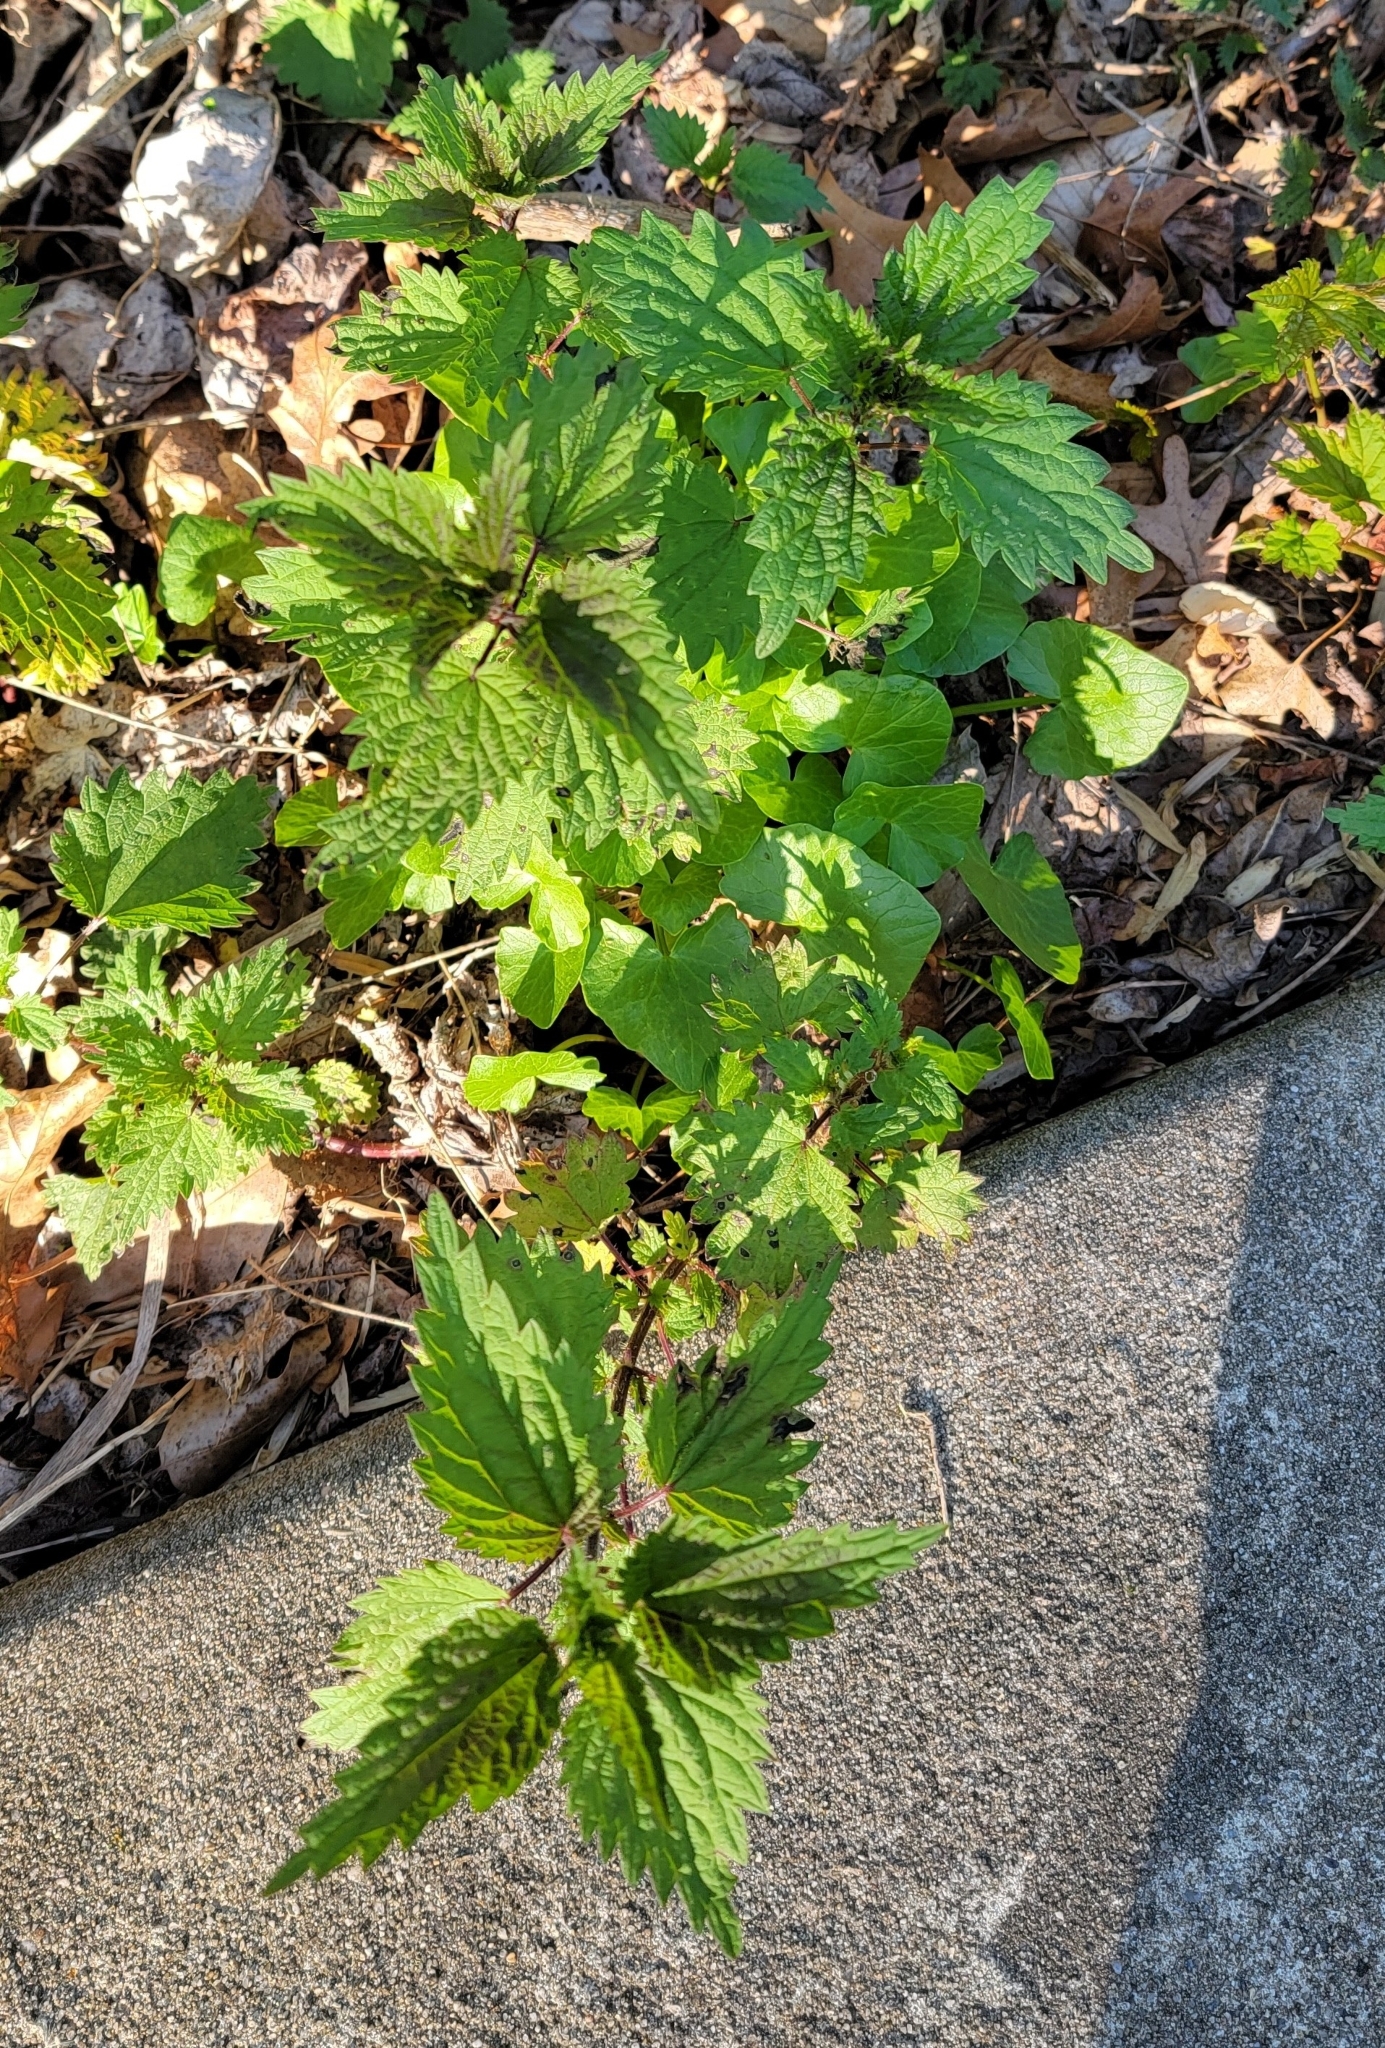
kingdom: Plantae
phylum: Tracheophyta
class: Magnoliopsida
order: Rosales
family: Urticaceae
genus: Urtica
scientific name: Urtica dioica
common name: Common nettle
